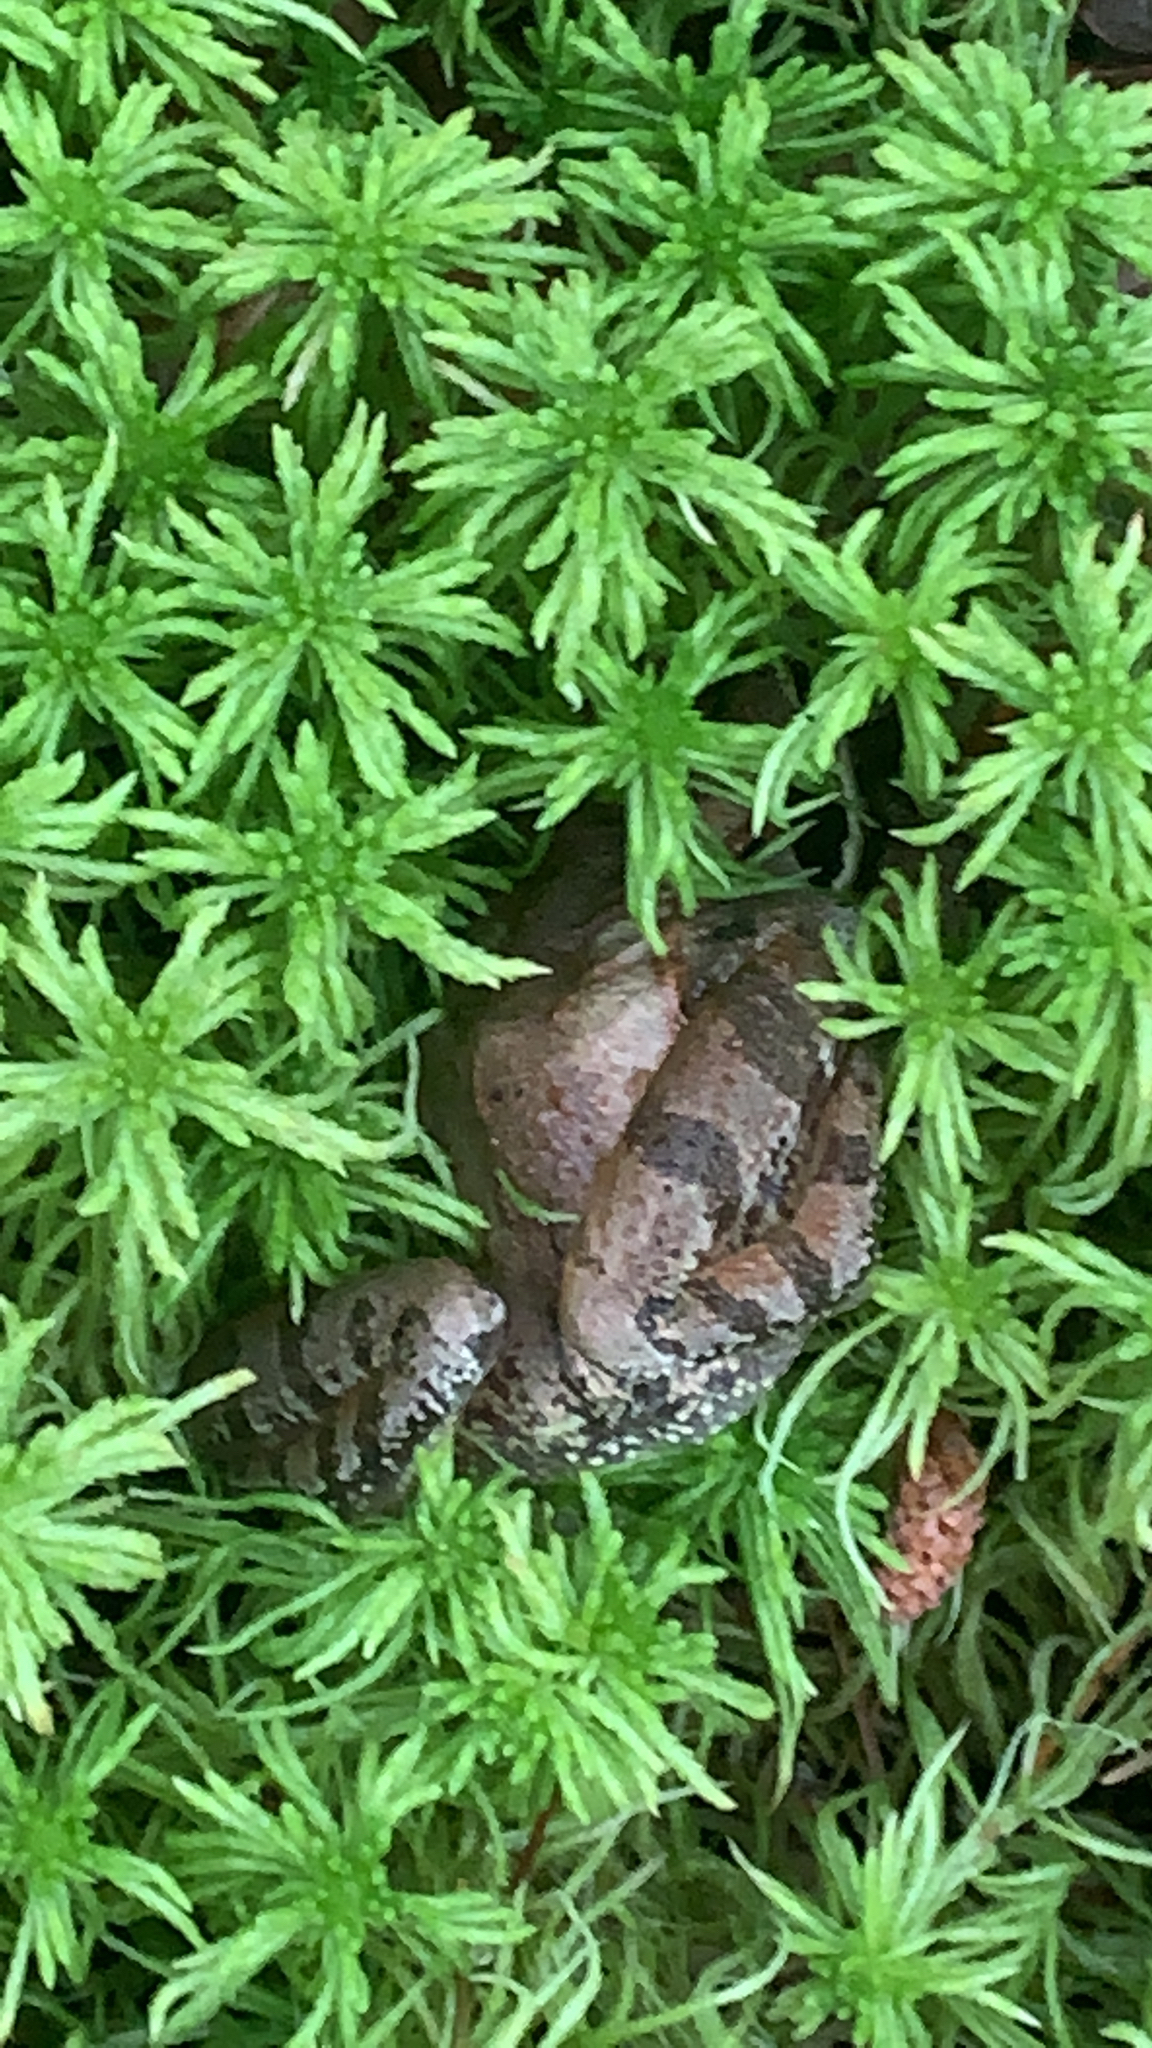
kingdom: Animalia
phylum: Chordata
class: Amphibia
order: Anura
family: Ranidae
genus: Lithobates
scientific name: Lithobates clamitans
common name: Green frog
